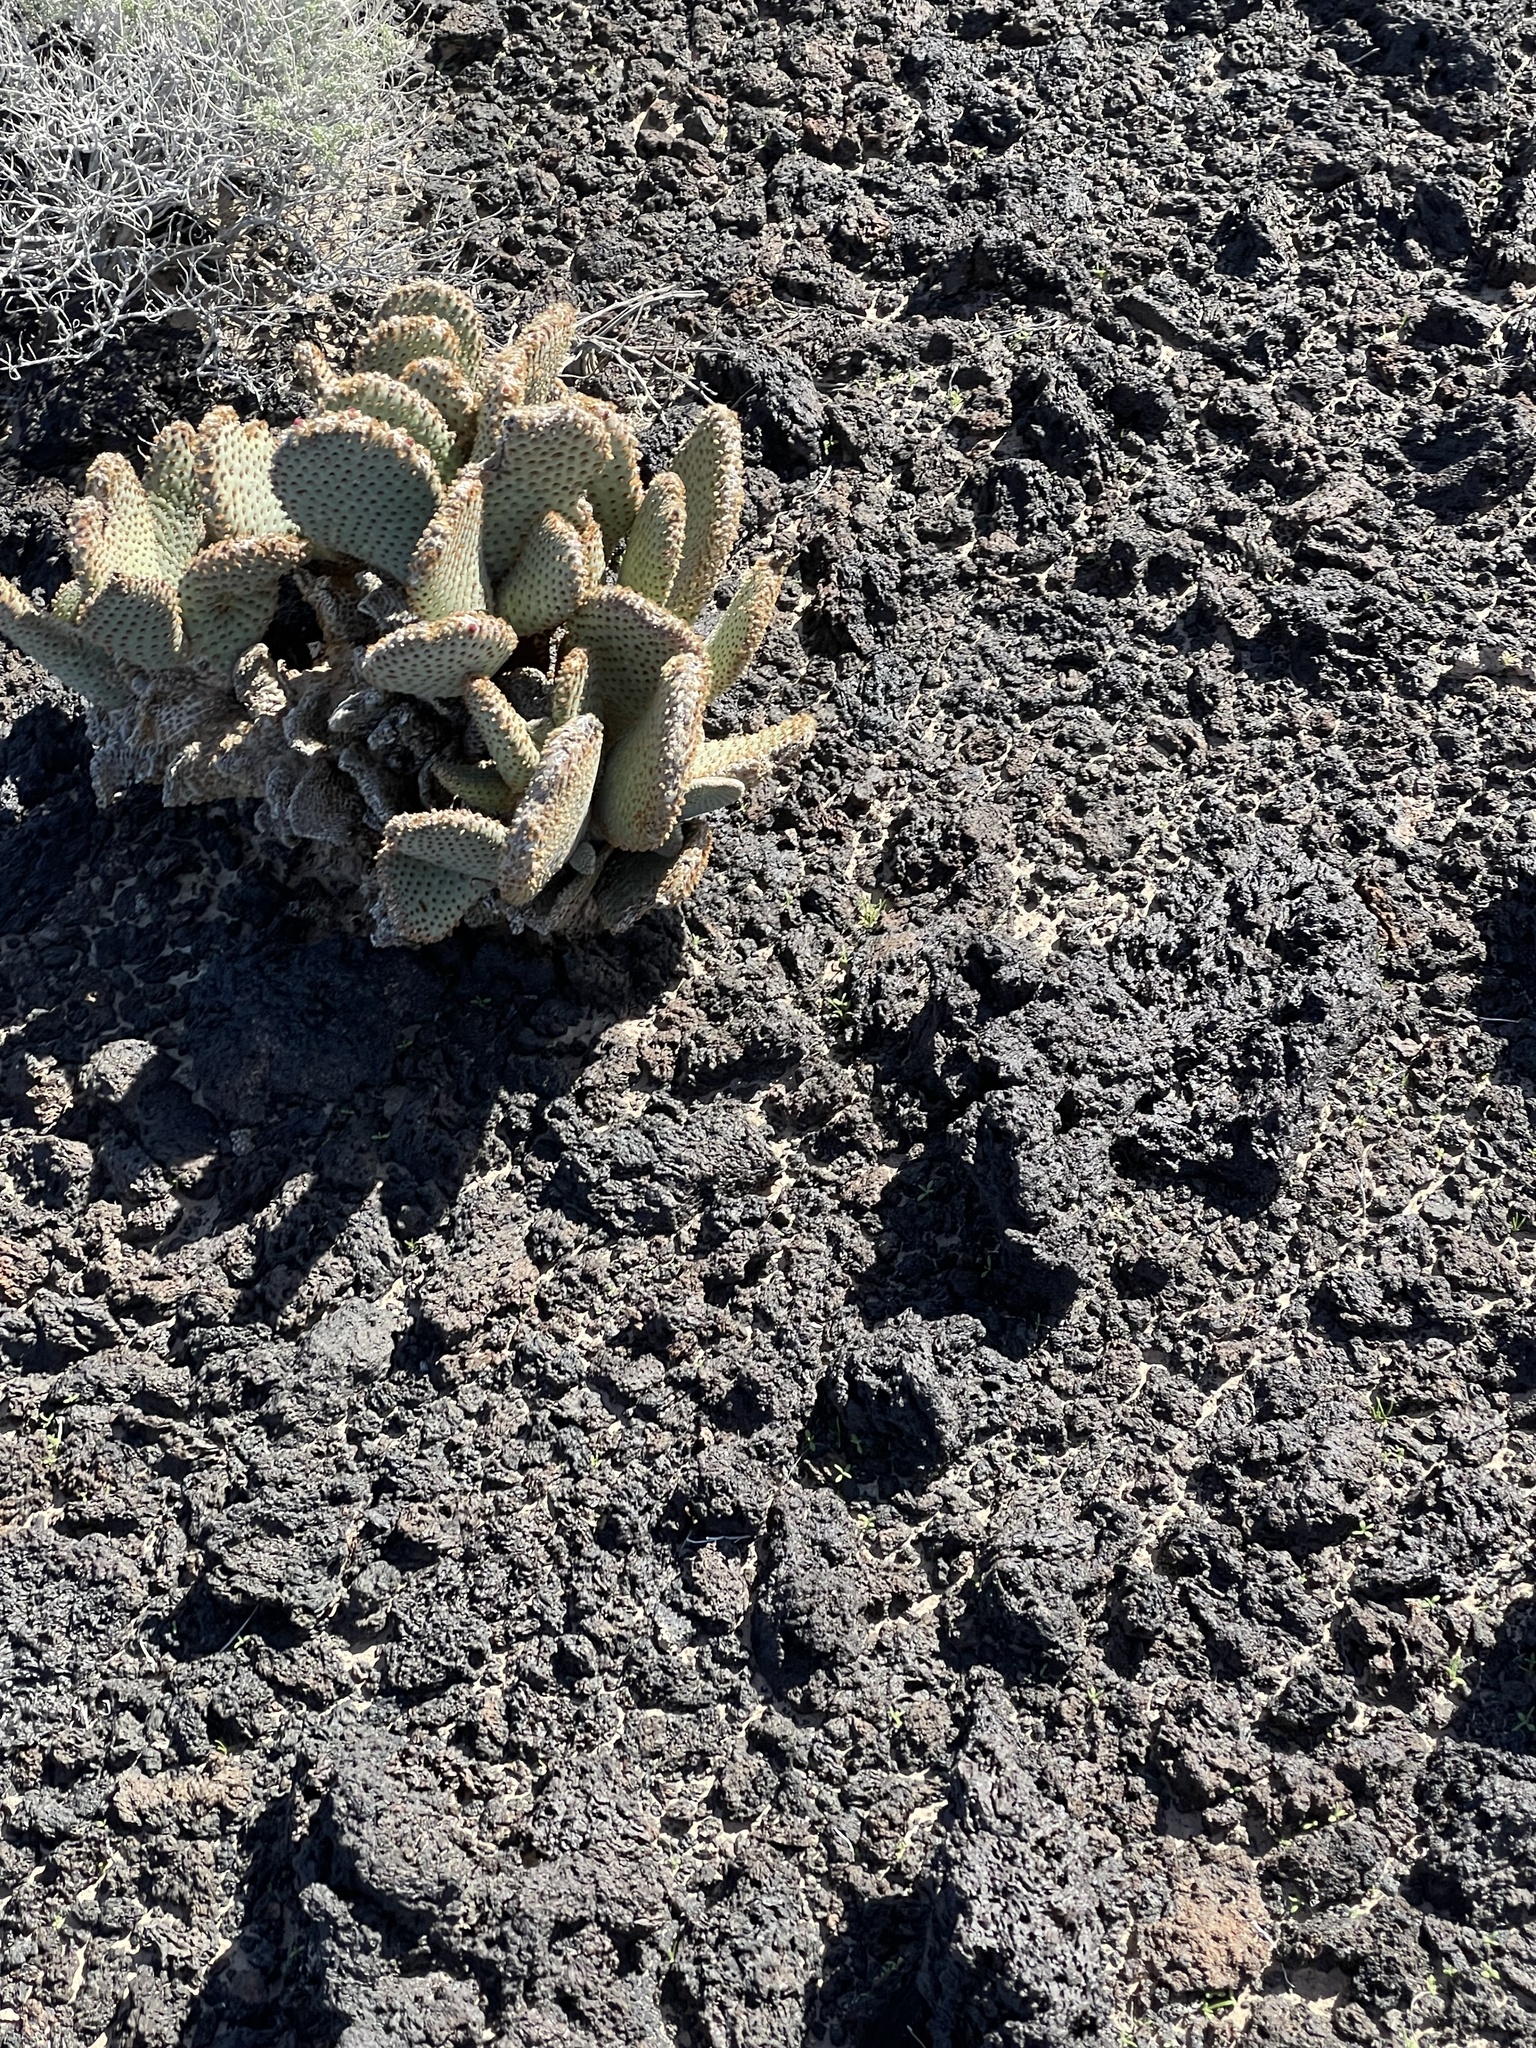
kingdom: Plantae
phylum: Tracheophyta
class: Magnoliopsida
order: Caryophyllales
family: Cactaceae
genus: Opuntia
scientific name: Opuntia basilaris
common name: Beavertail prickly-pear
